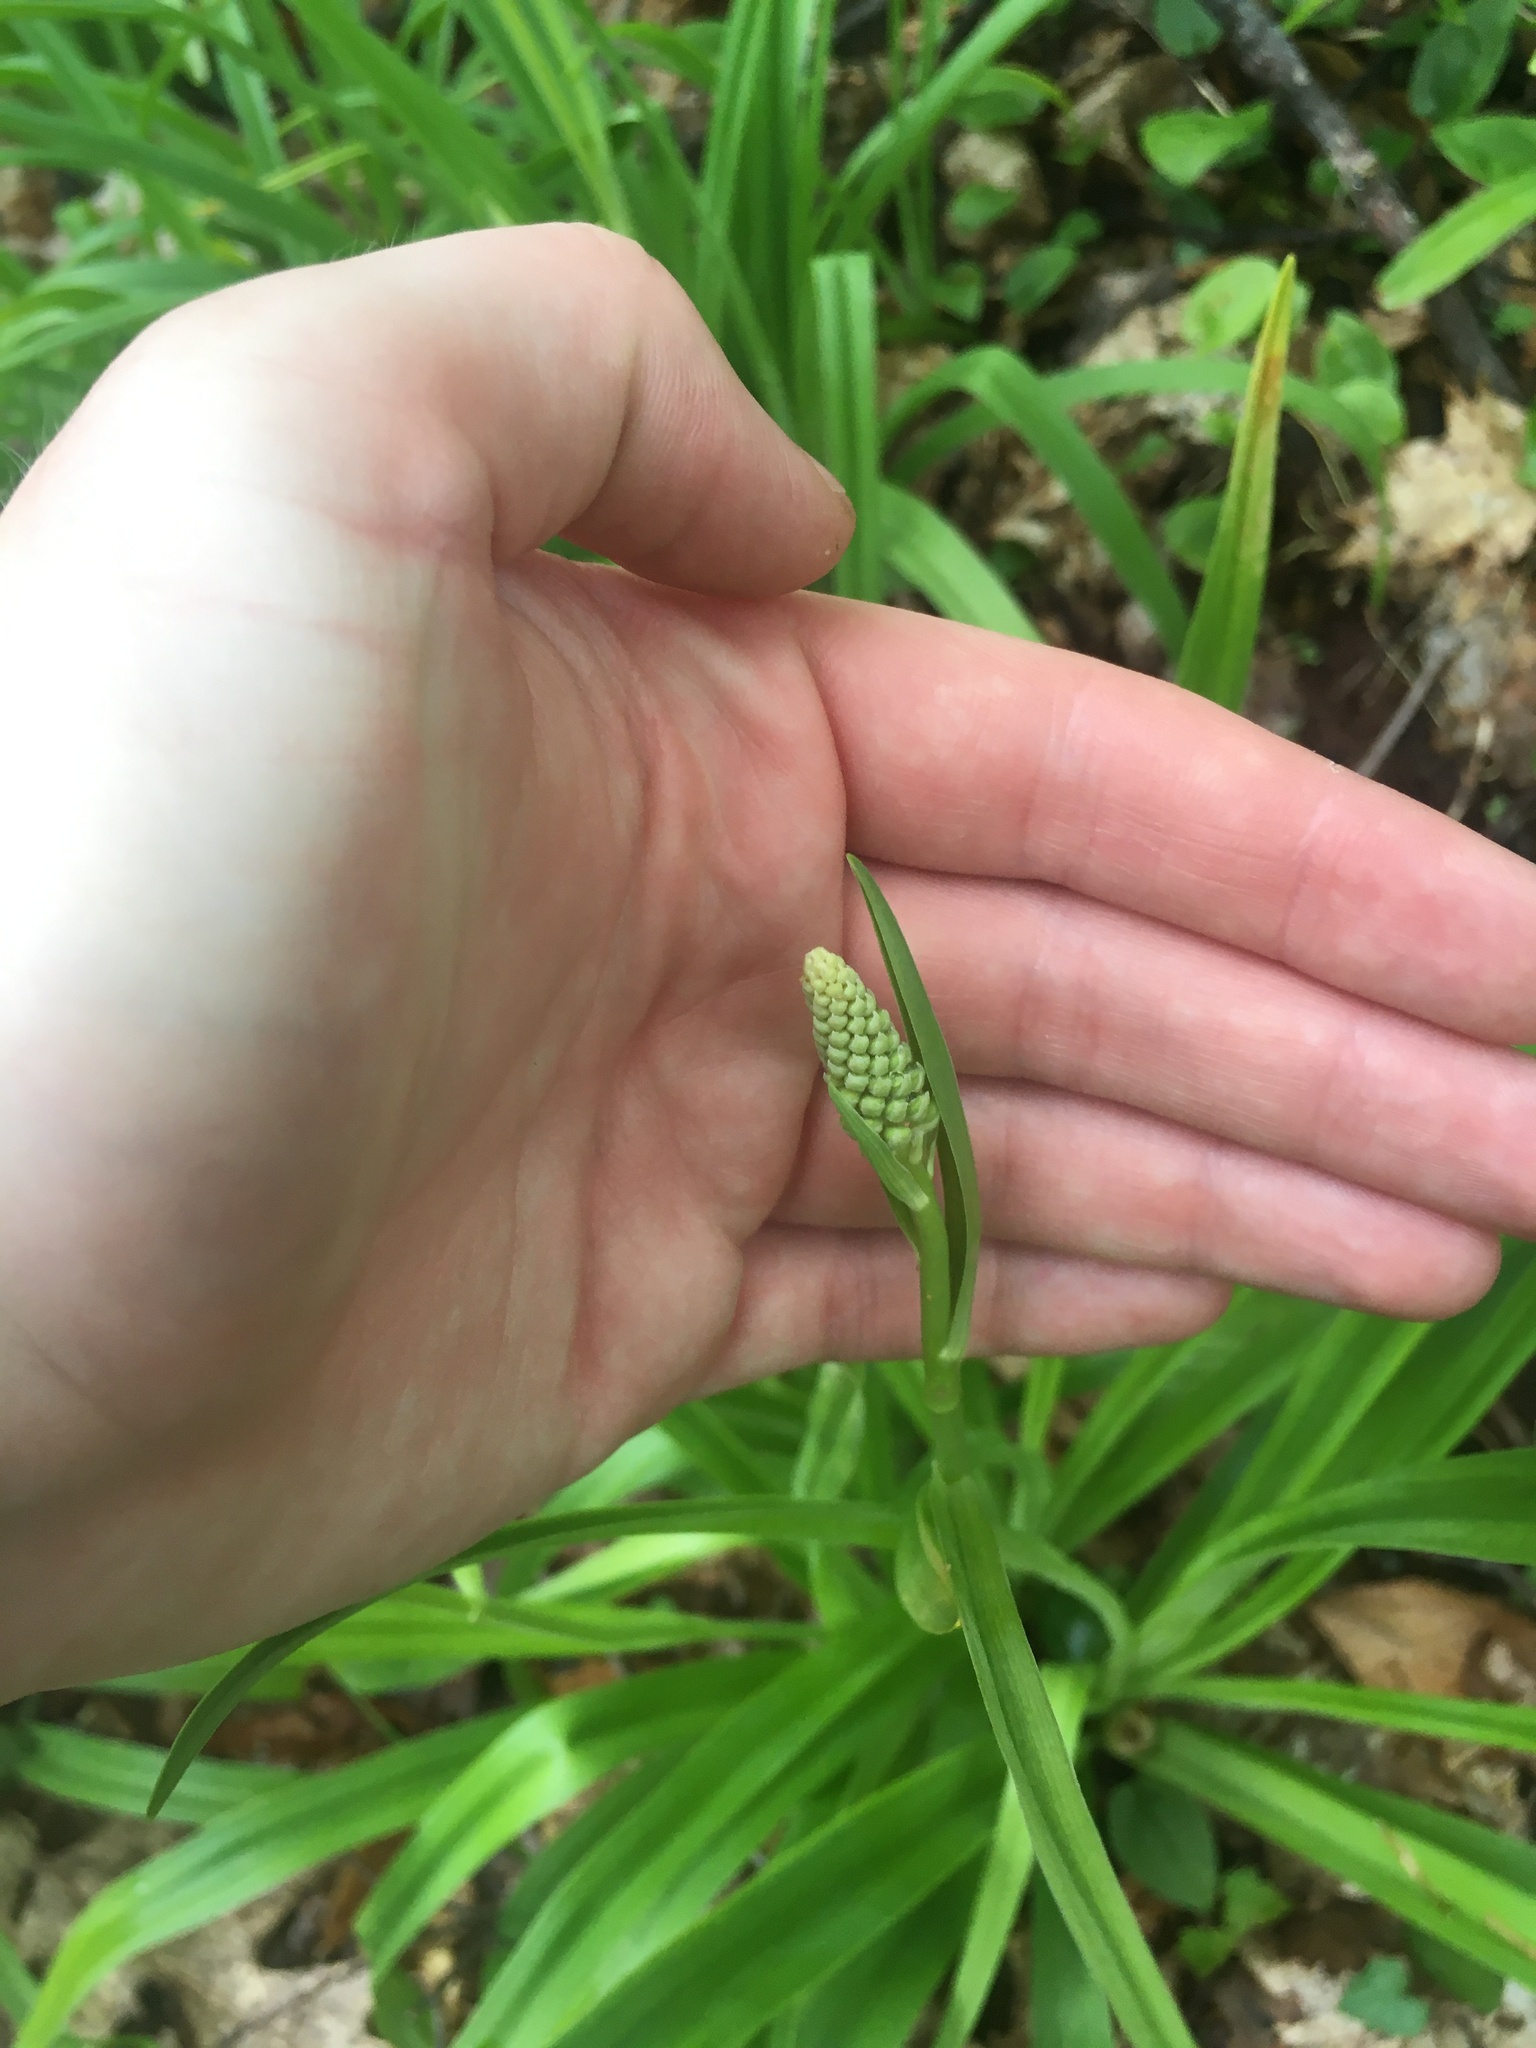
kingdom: Plantae
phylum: Tracheophyta
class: Liliopsida
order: Liliales
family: Melanthiaceae
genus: Amianthium
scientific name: Amianthium muscitoxicum
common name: Fly-poison
